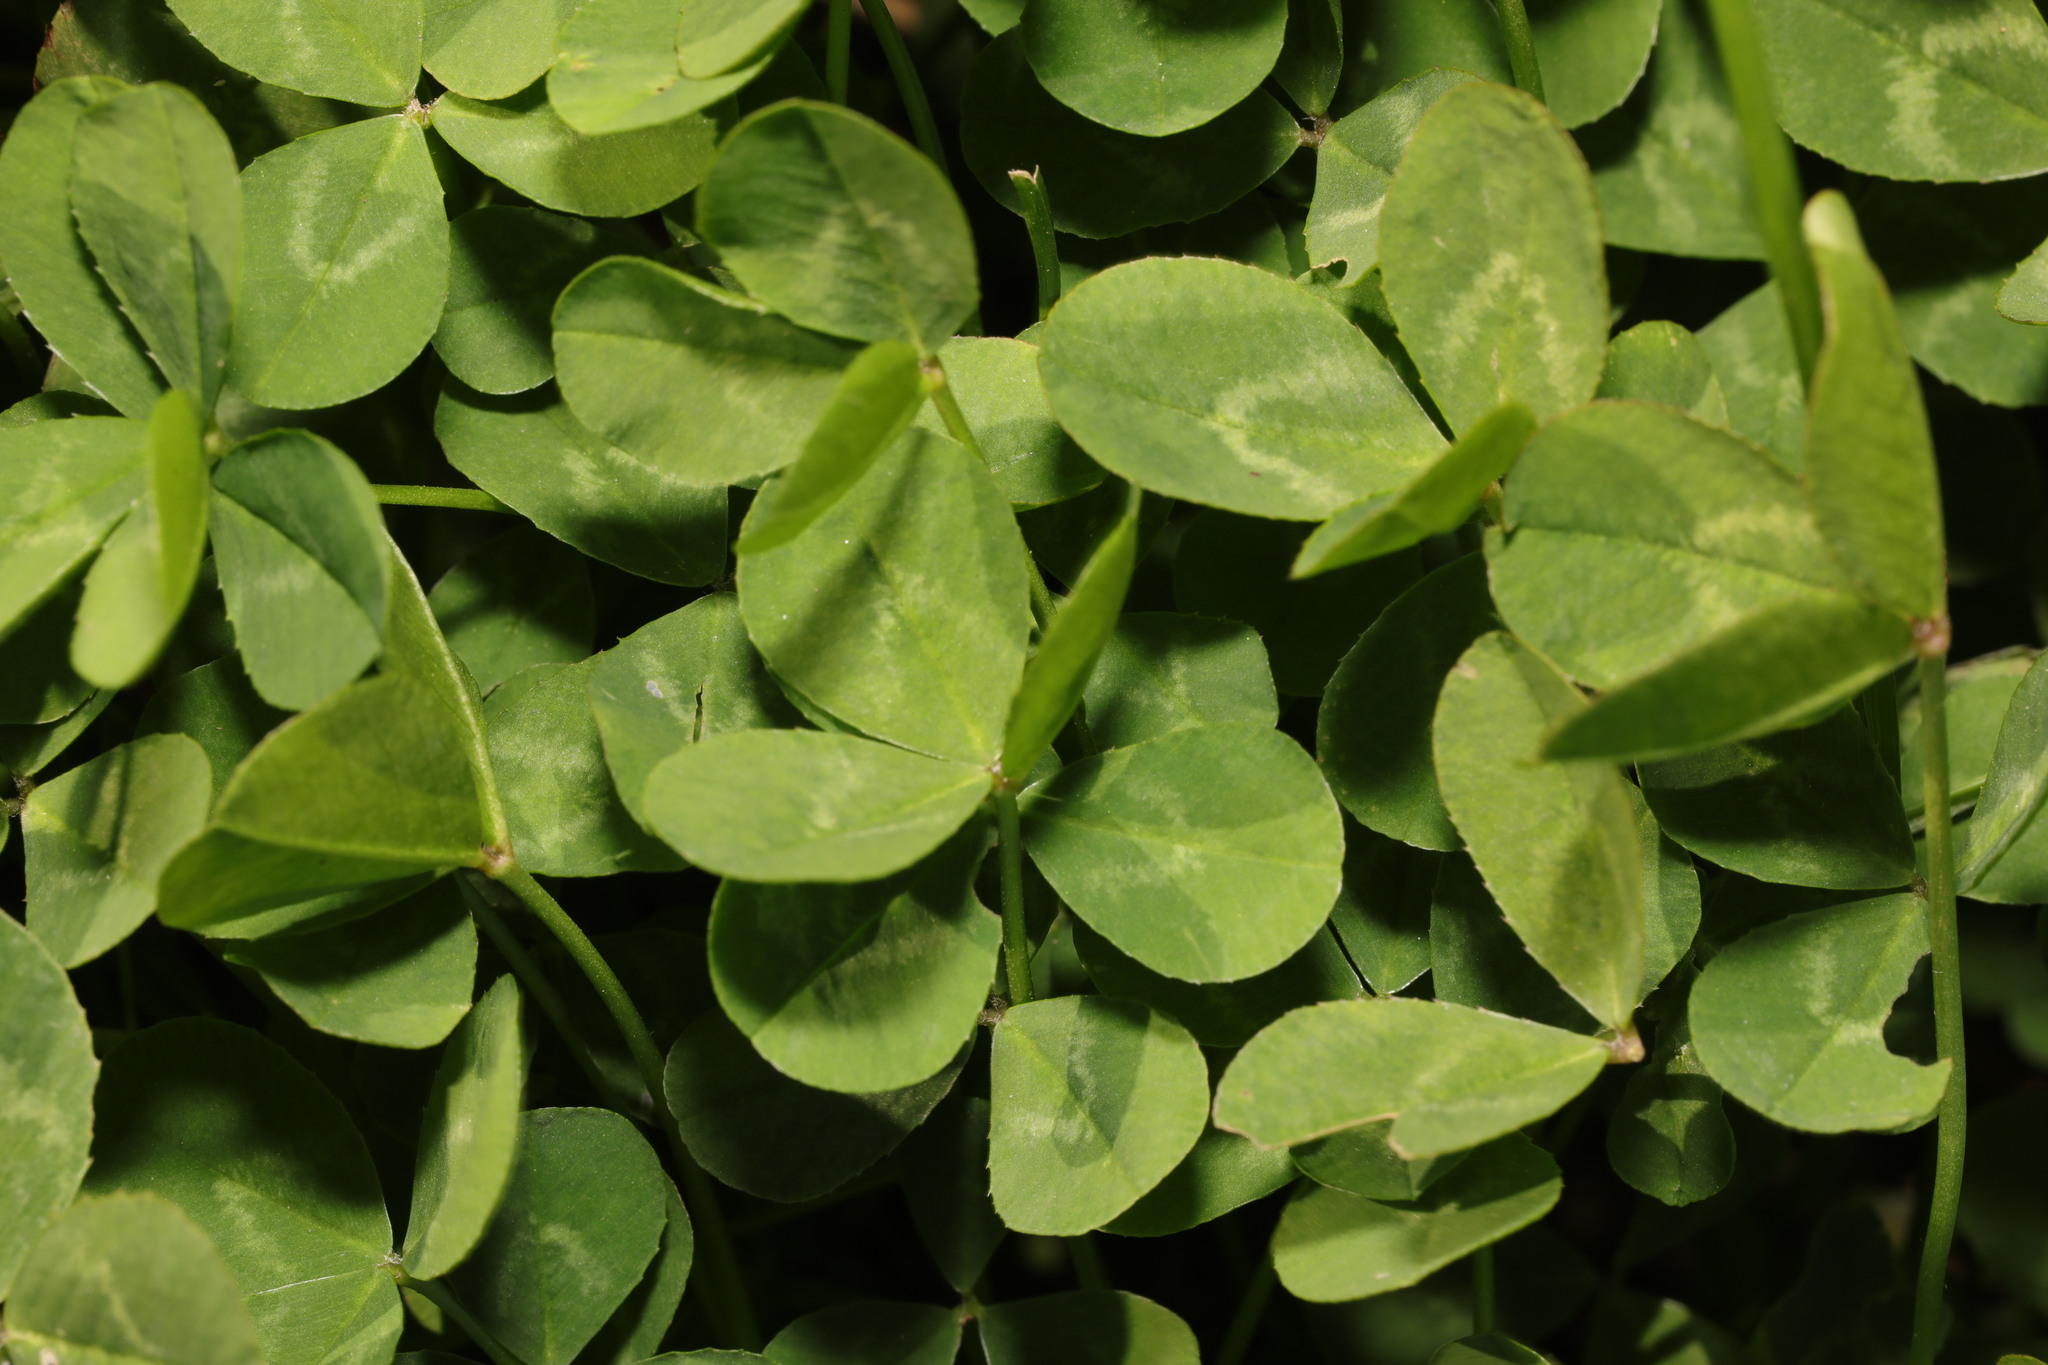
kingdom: Plantae
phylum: Tracheophyta
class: Magnoliopsida
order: Fabales
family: Fabaceae
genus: Trifolium
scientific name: Trifolium repens
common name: White clover
